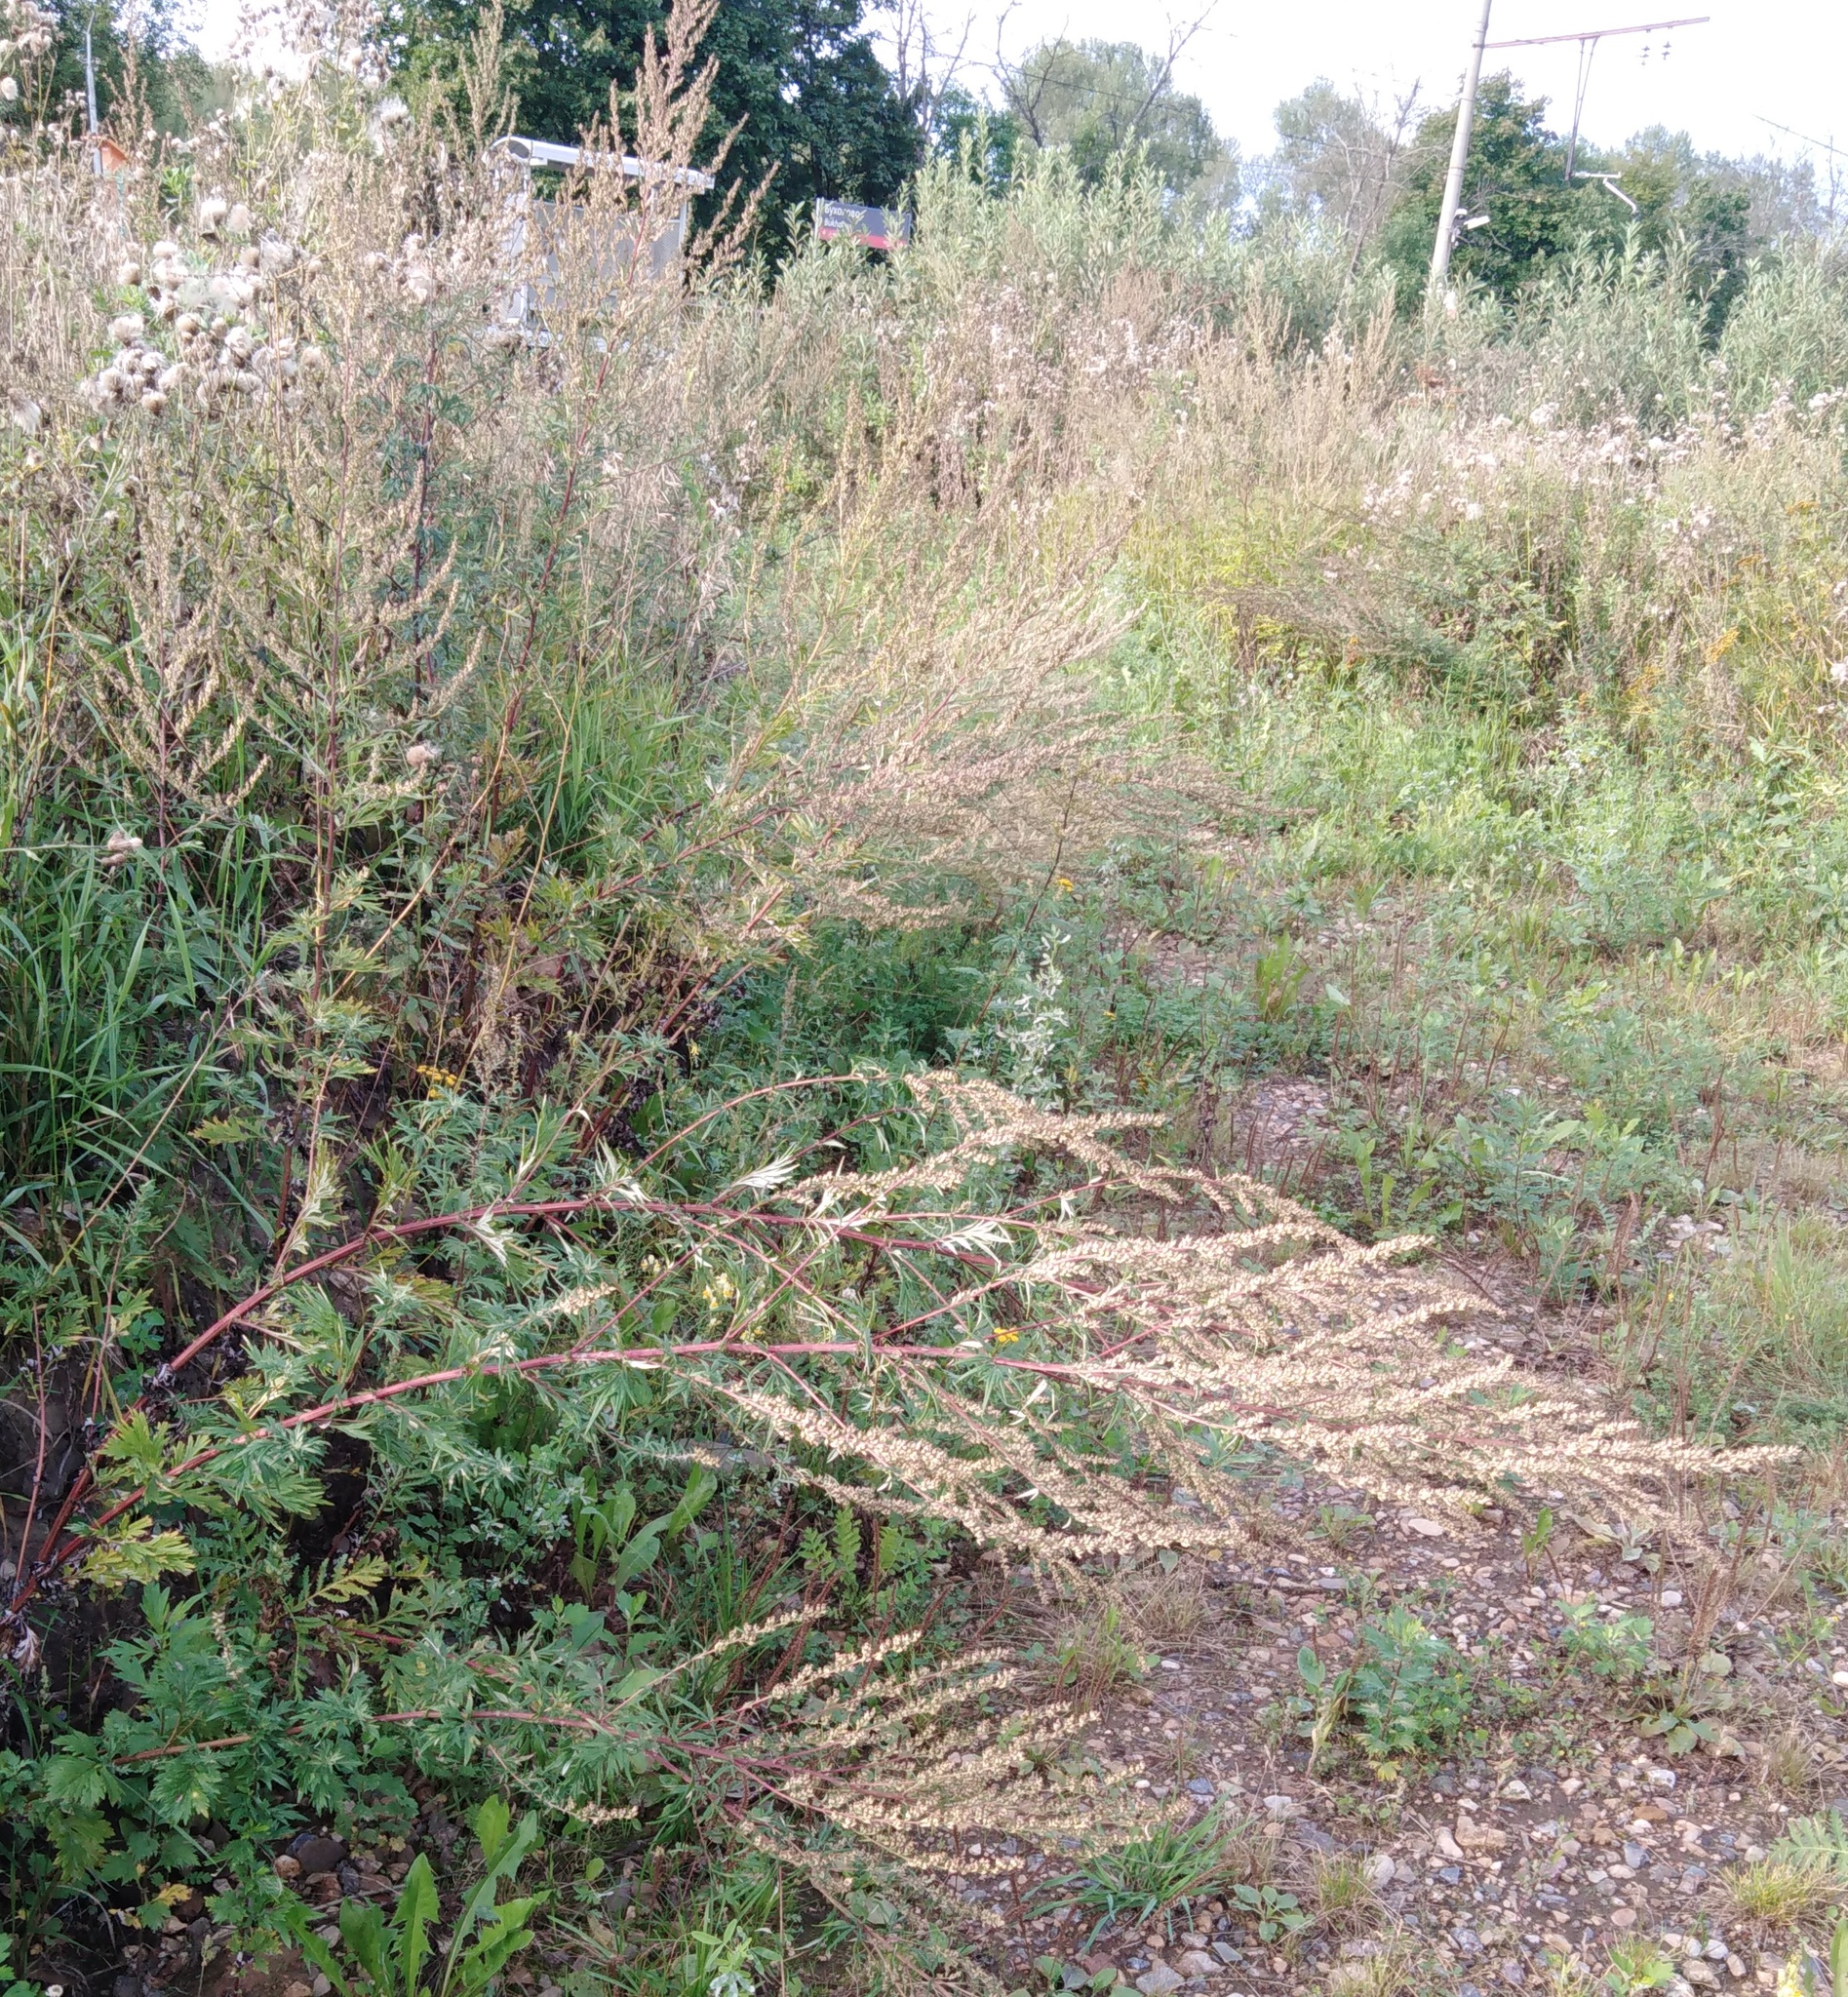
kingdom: Plantae
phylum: Tracheophyta
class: Magnoliopsida
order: Asterales
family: Asteraceae
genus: Artemisia
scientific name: Artemisia vulgaris
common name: Mugwort
